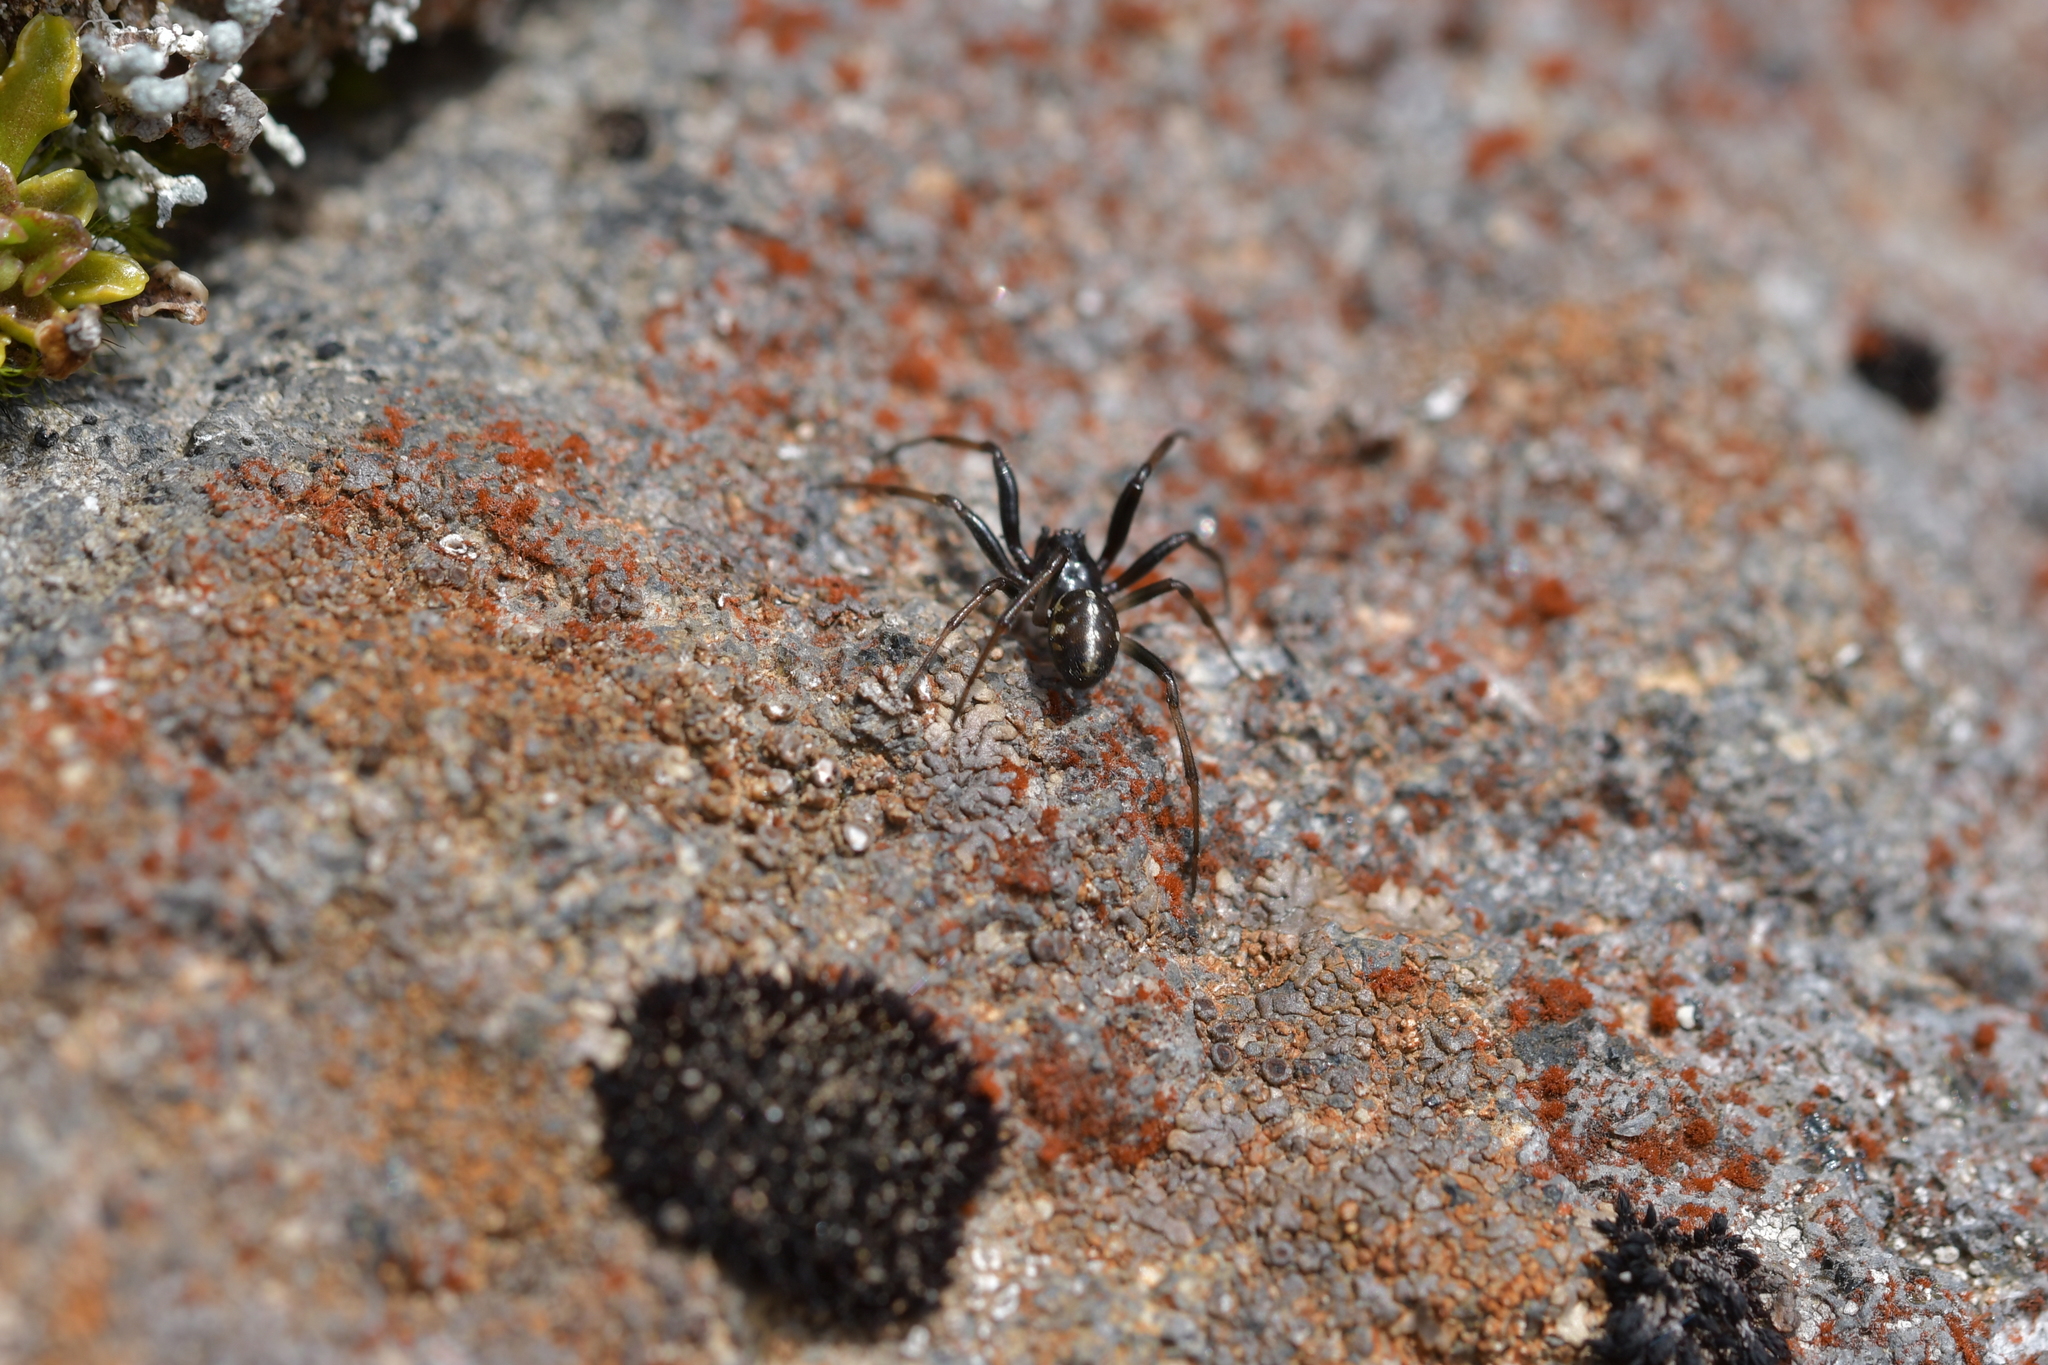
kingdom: Animalia
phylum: Arthropoda
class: Arachnida
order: Araneae
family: Theridiidae
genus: Steatoda
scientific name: Steatoda truncata
